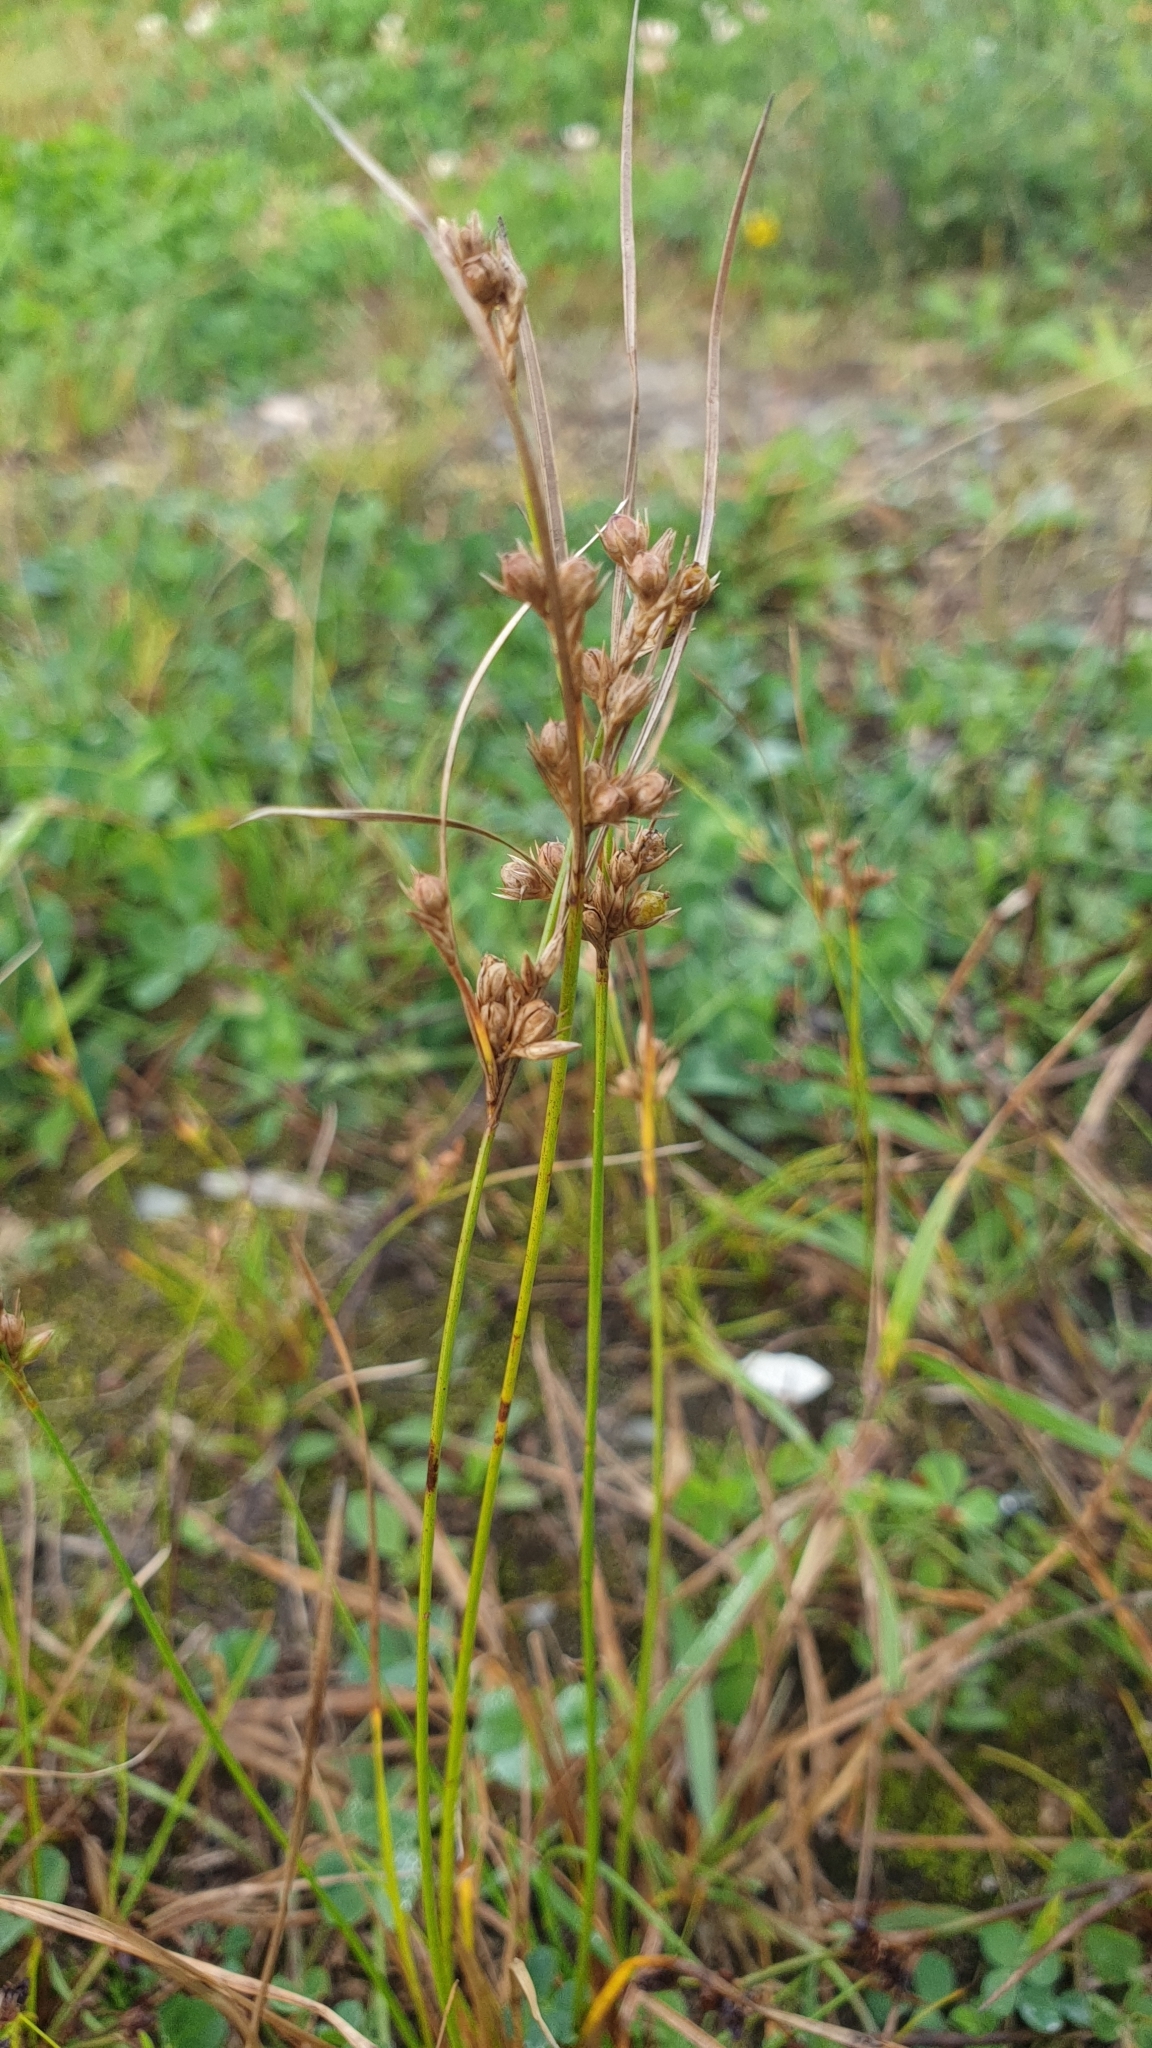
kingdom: Plantae
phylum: Tracheophyta
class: Liliopsida
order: Poales
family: Juncaceae
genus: Juncus
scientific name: Juncus tenuis
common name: Slender rush
